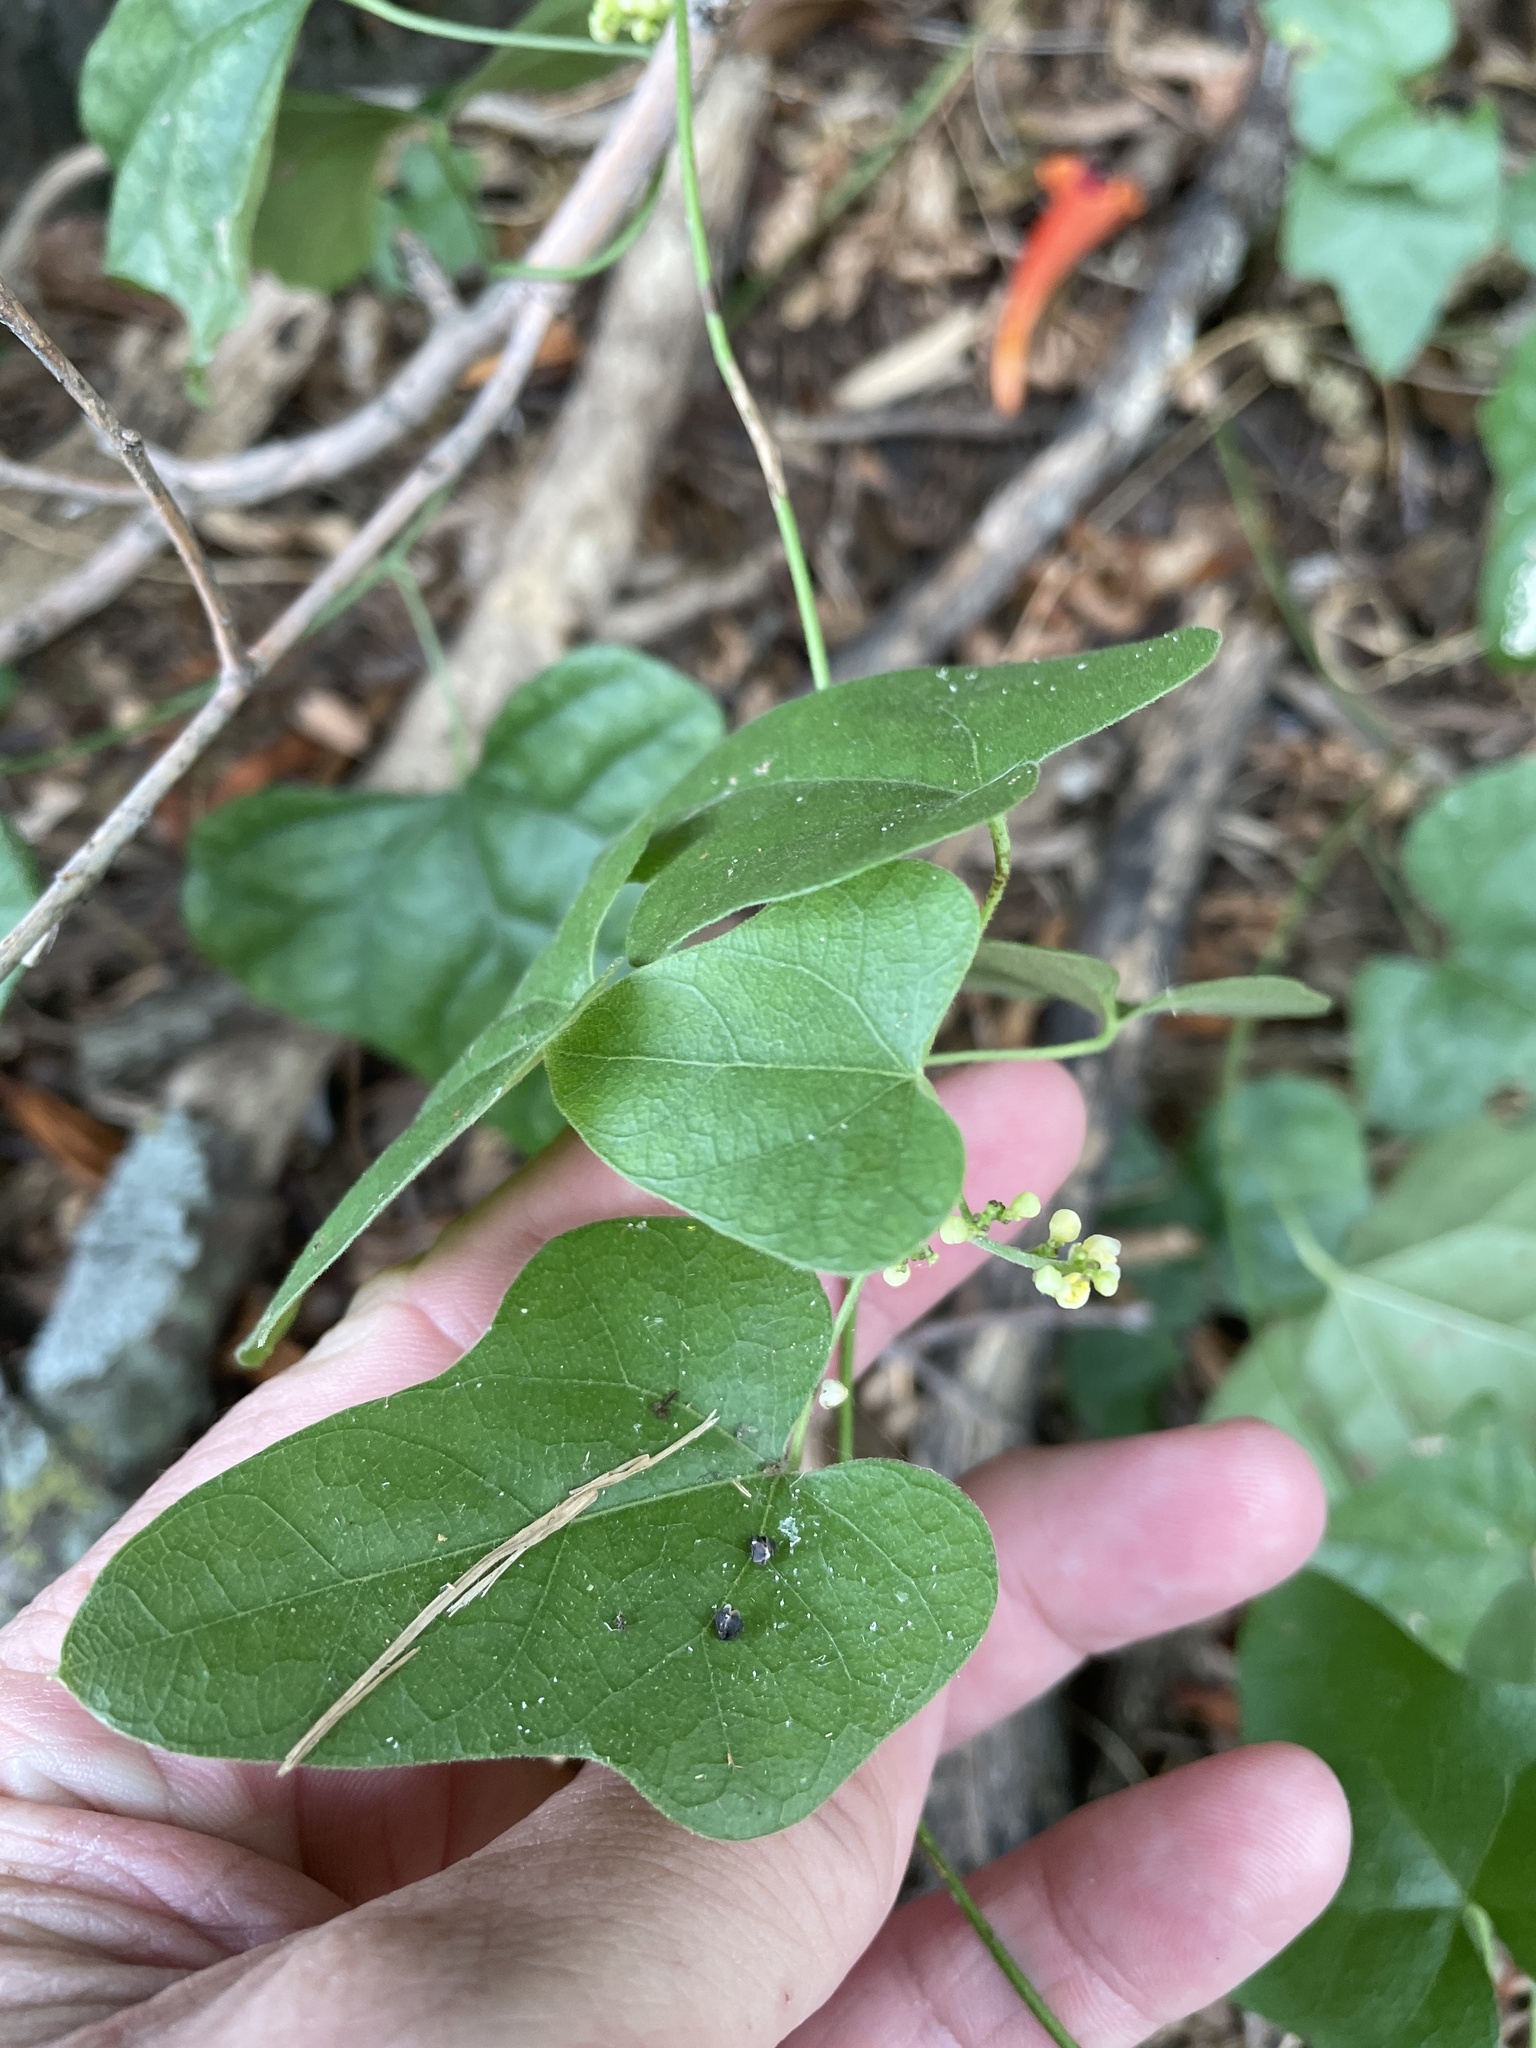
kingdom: Plantae
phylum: Tracheophyta
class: Magnoliopsida
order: Ranunculales
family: Menispermaceae
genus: Cocculus
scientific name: Cocculus carolinus
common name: Carolina moonseed
